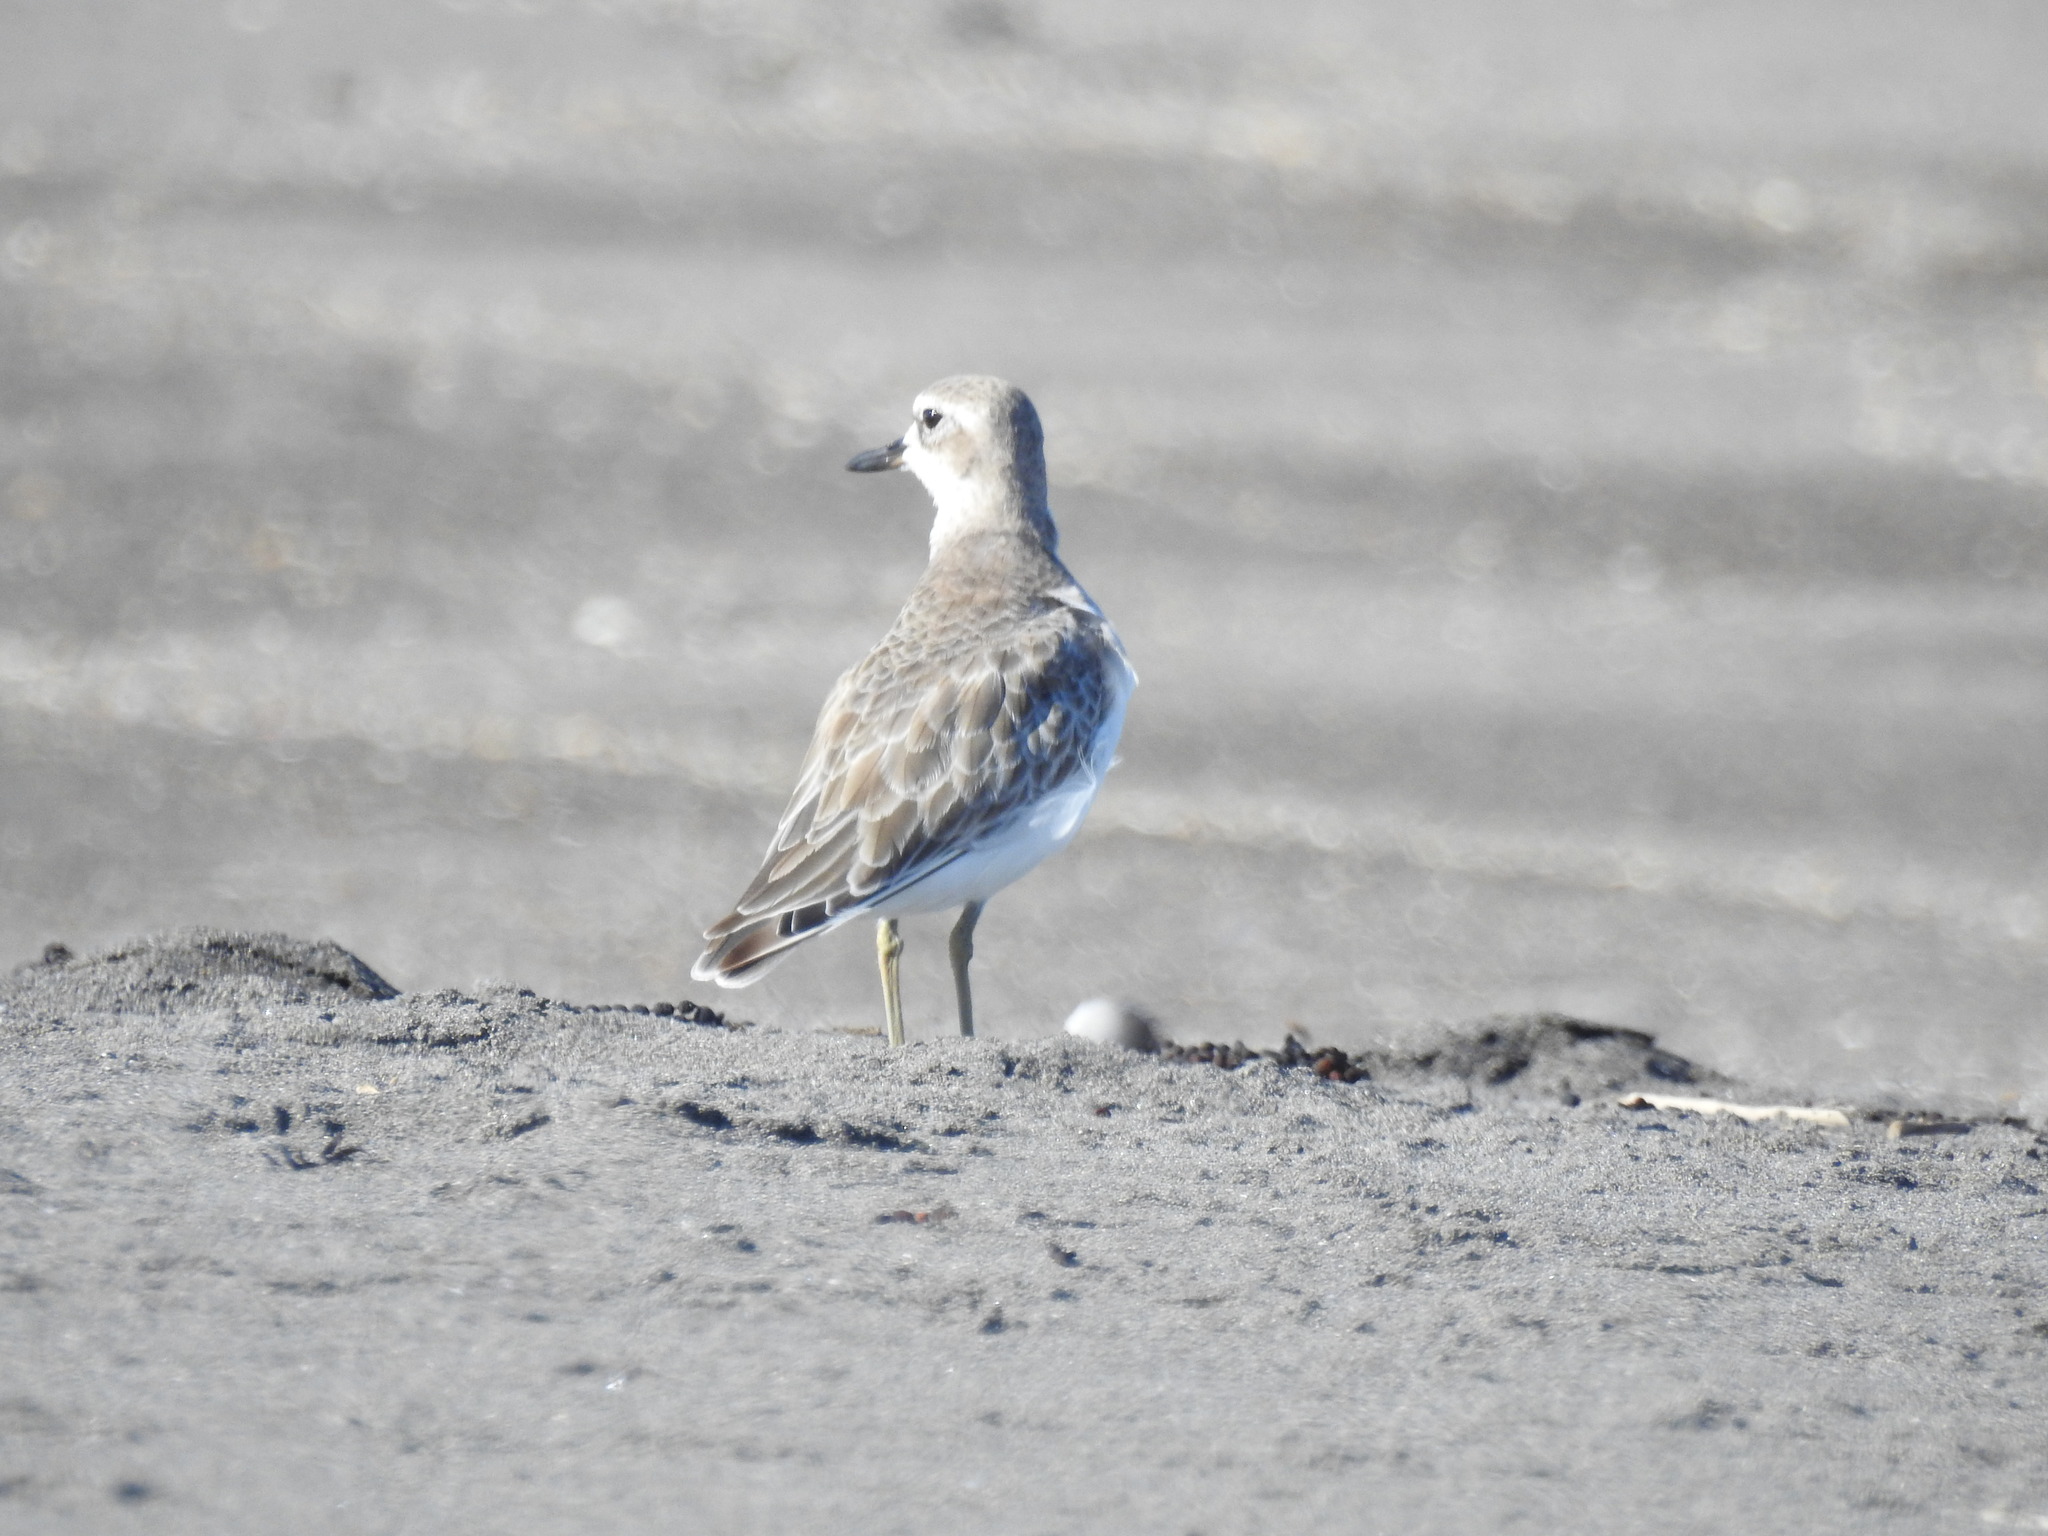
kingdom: Animalia
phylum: Chordata
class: Aves
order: Charadriiformes
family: Charadriidae
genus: Anarhynchus
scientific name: Anarhynchus
